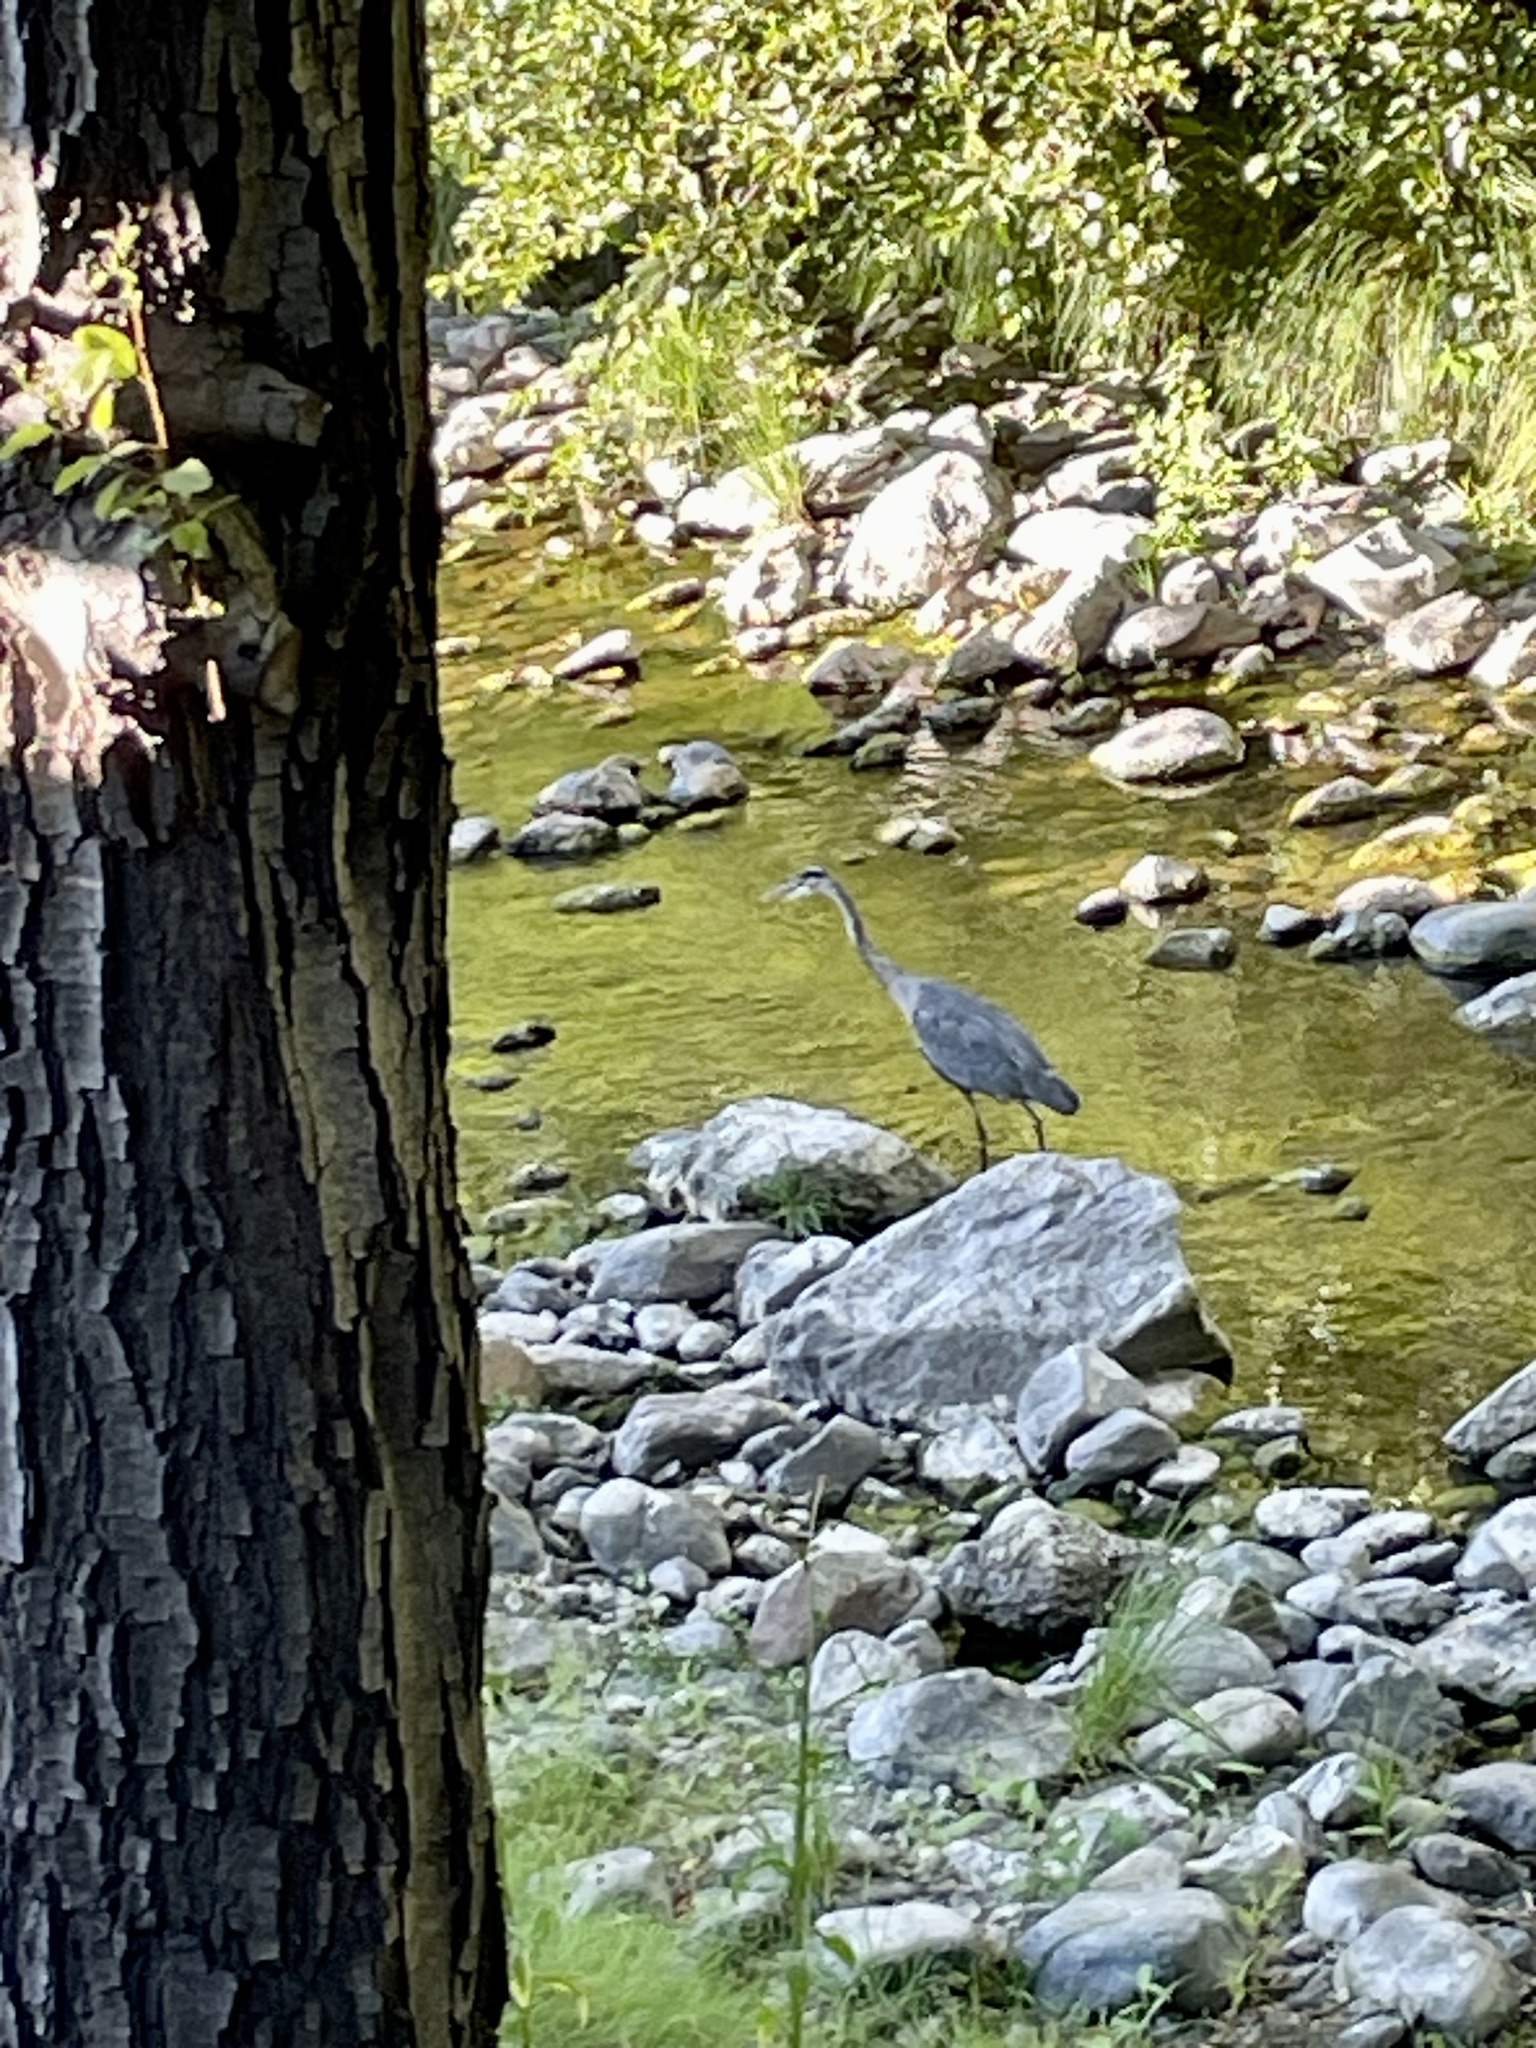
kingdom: Animalia
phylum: Chordata
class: Aves
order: Pelecaniformes
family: Ardeidae
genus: Ardea
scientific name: Ardea herodias
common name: Great blue heron
